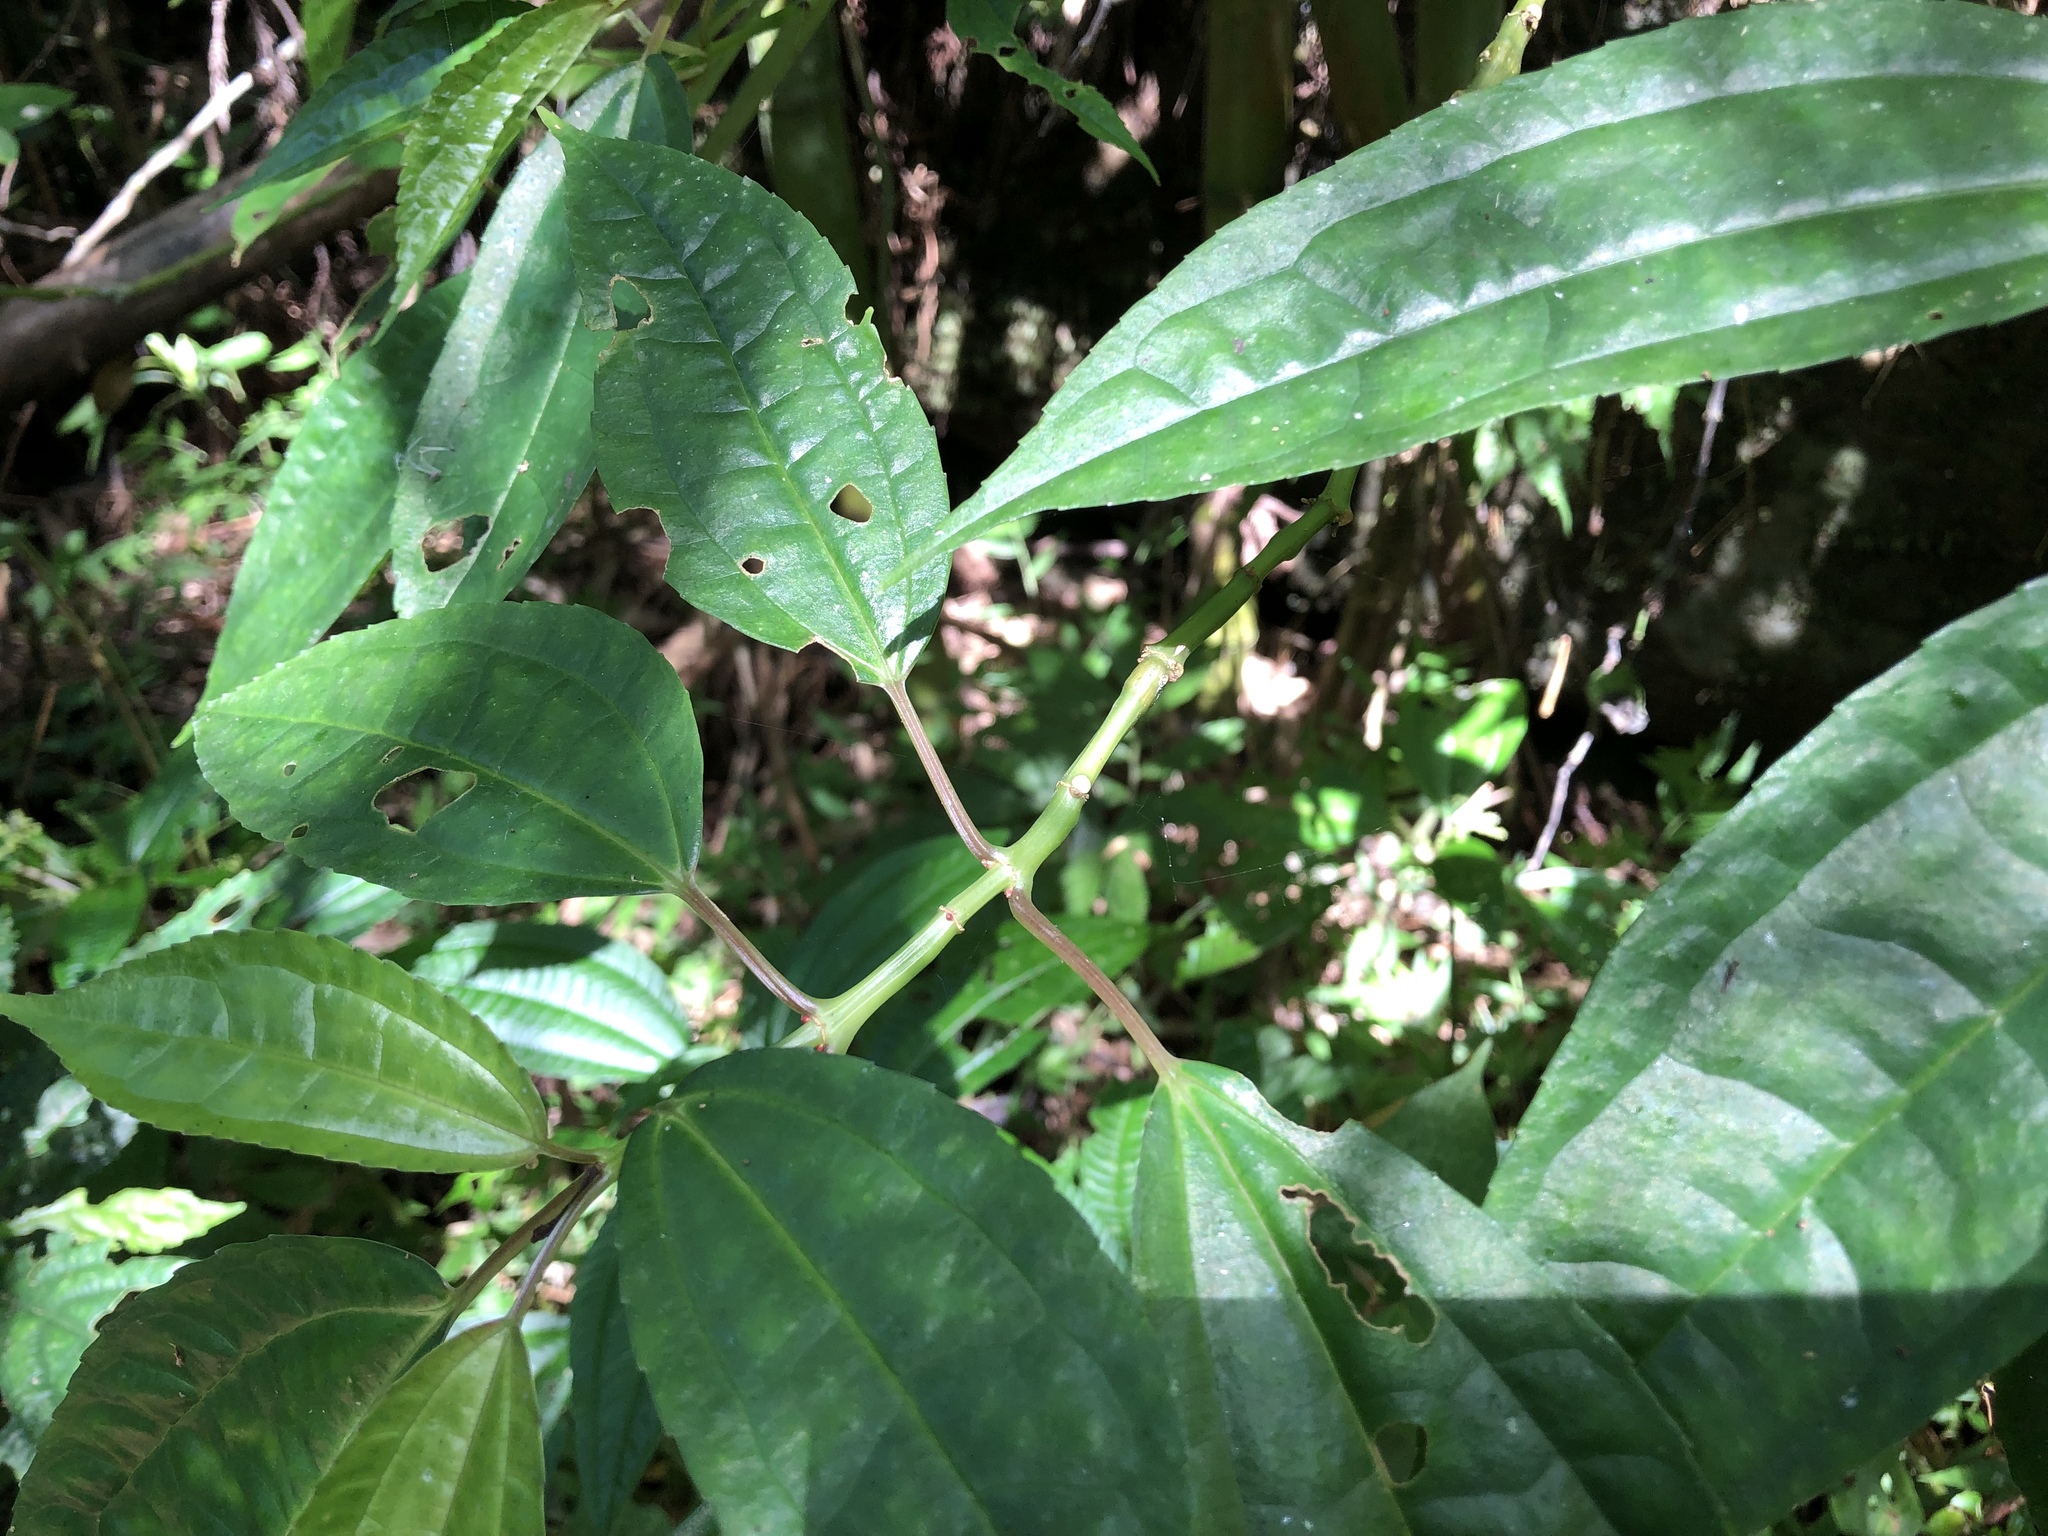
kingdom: Plantae
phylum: Tracheophyta
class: Magnoliopsida
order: Rosales
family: Urticaceae
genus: Pilea
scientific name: Pilea funkikensis
